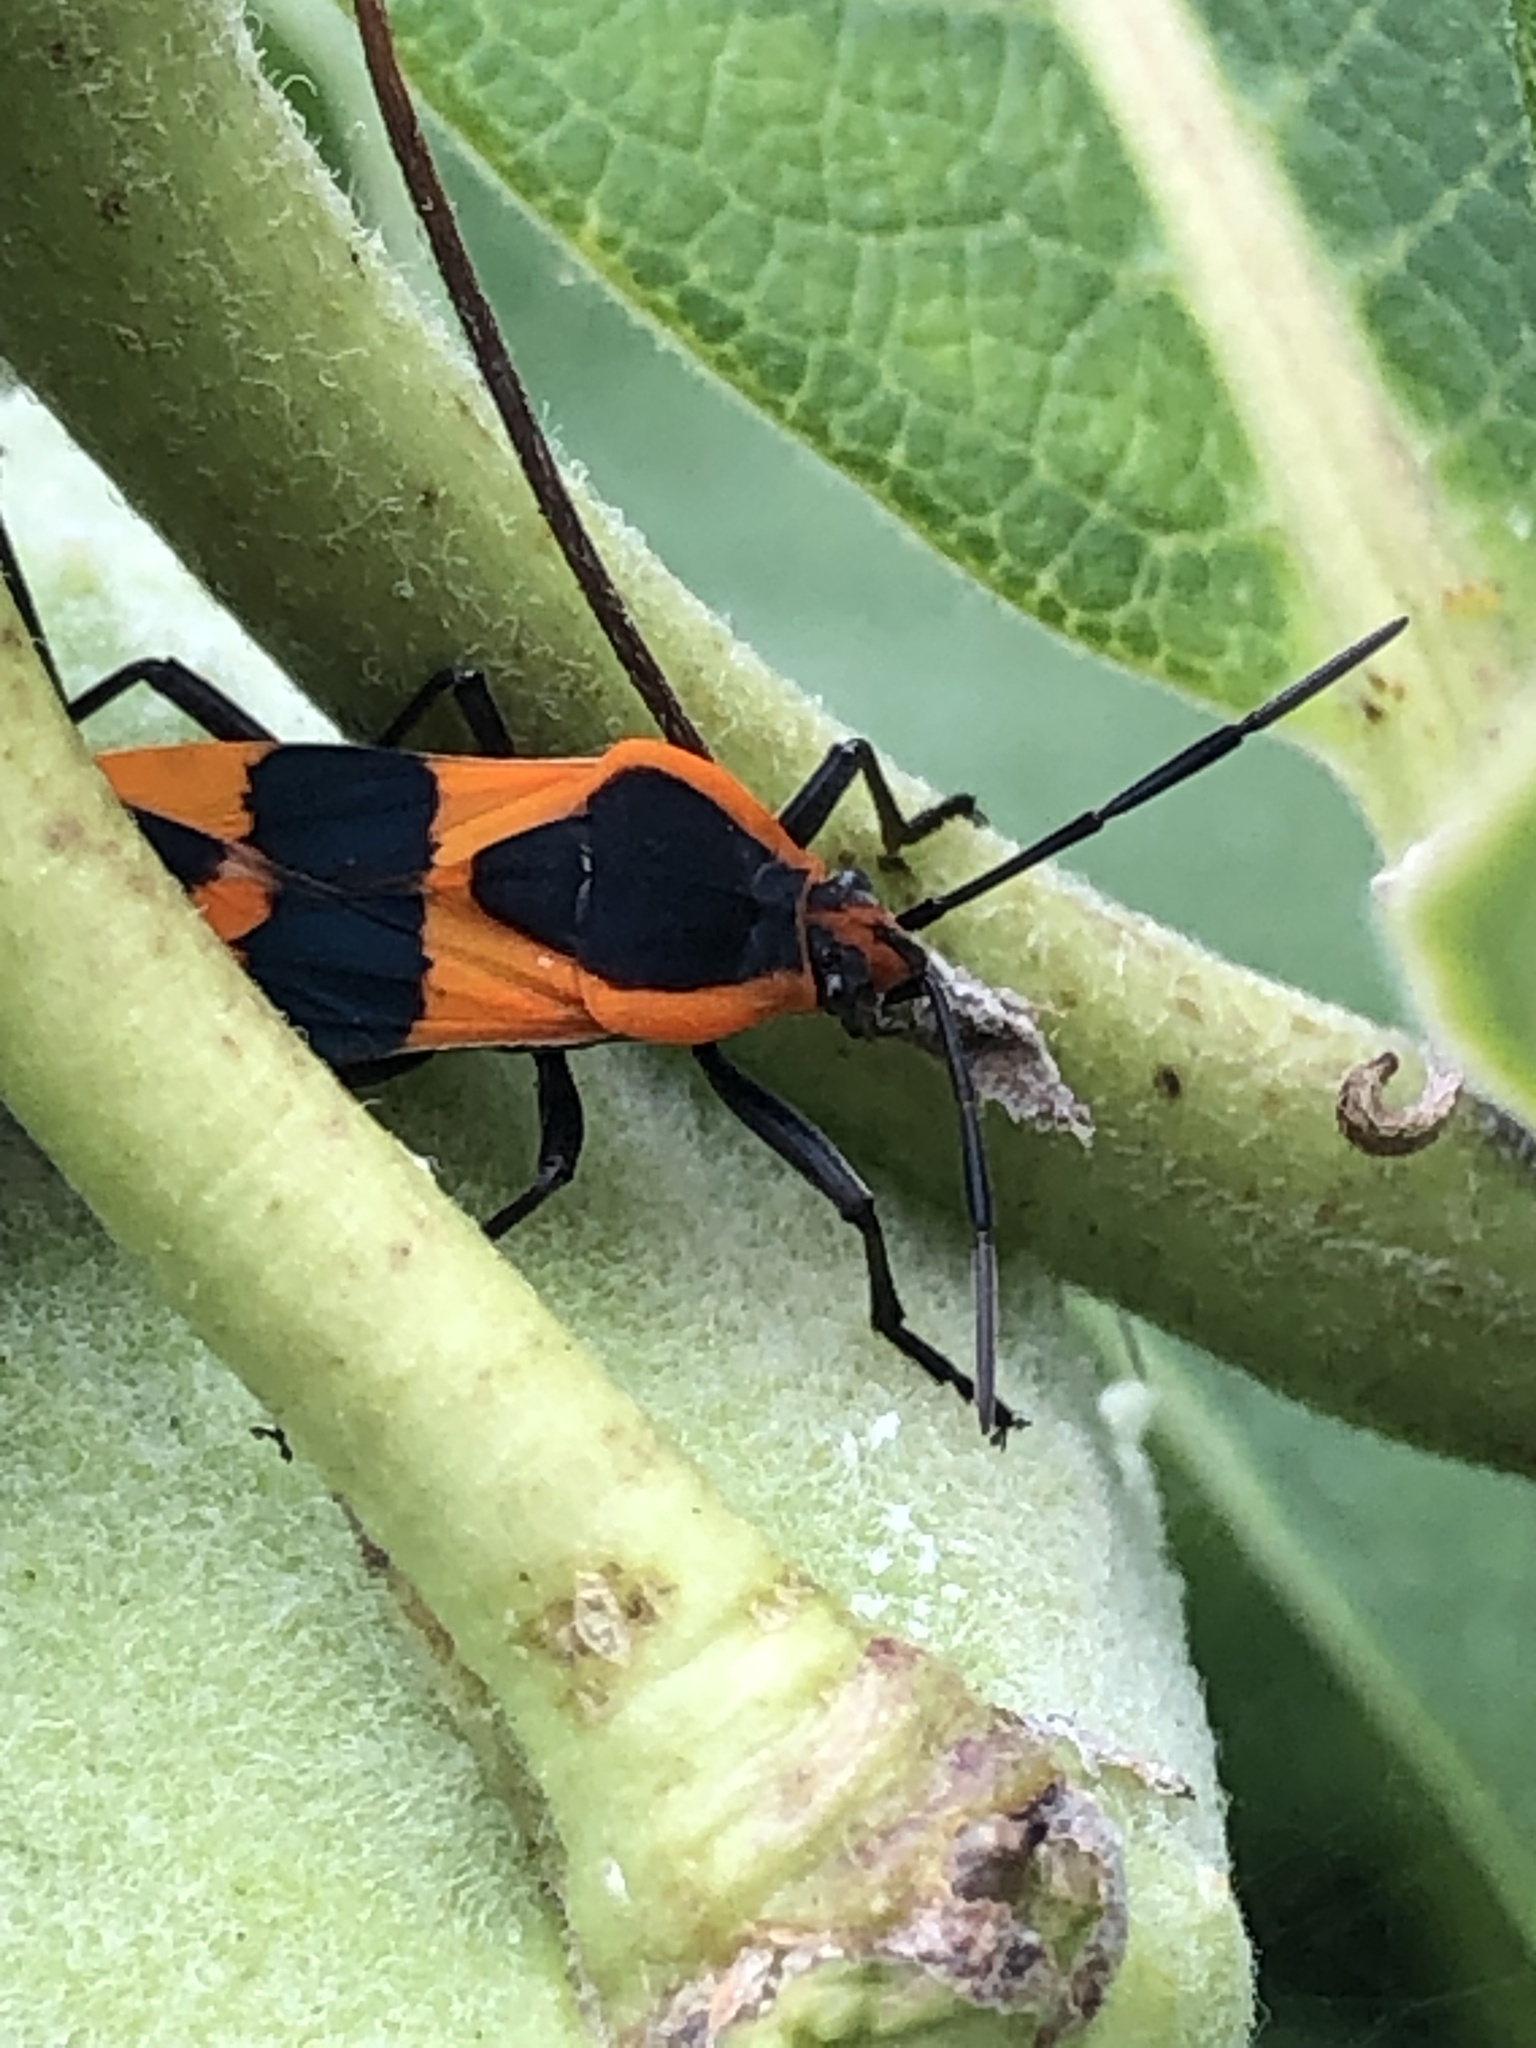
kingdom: Animalia
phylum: Arthropoda
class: Insecta
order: Hemiptera
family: Lygaeidae
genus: Oncopeltus
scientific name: Oncopeltus fasciatus
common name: Large milkweed bug
